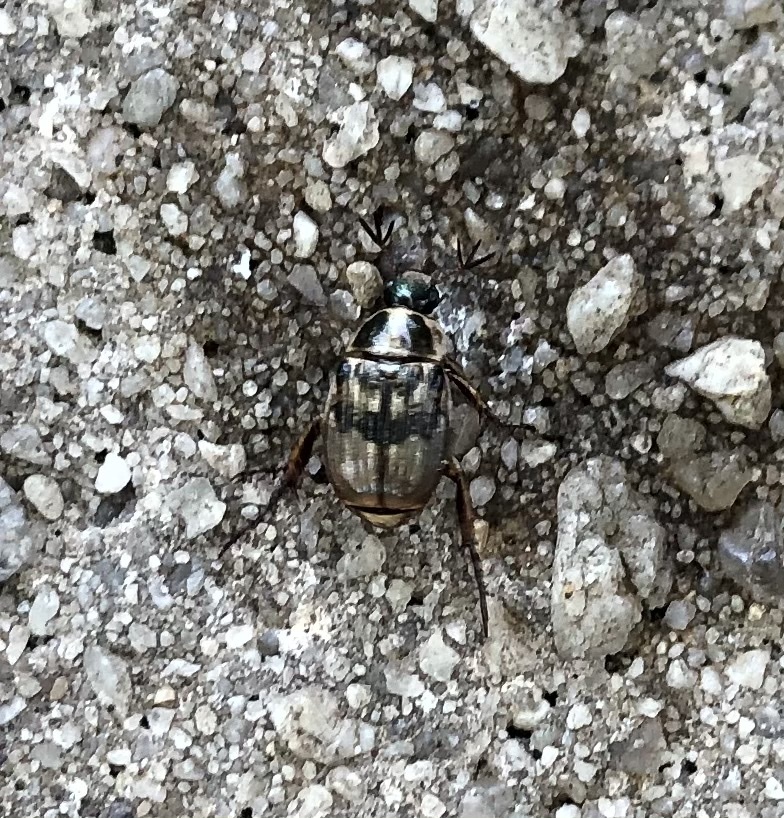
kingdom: Animalia
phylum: Arthropoda
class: Insecta
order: Coleoptera
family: Scarabaeidae
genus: Exomala
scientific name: Exomala orientalis
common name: Oriental beetle
